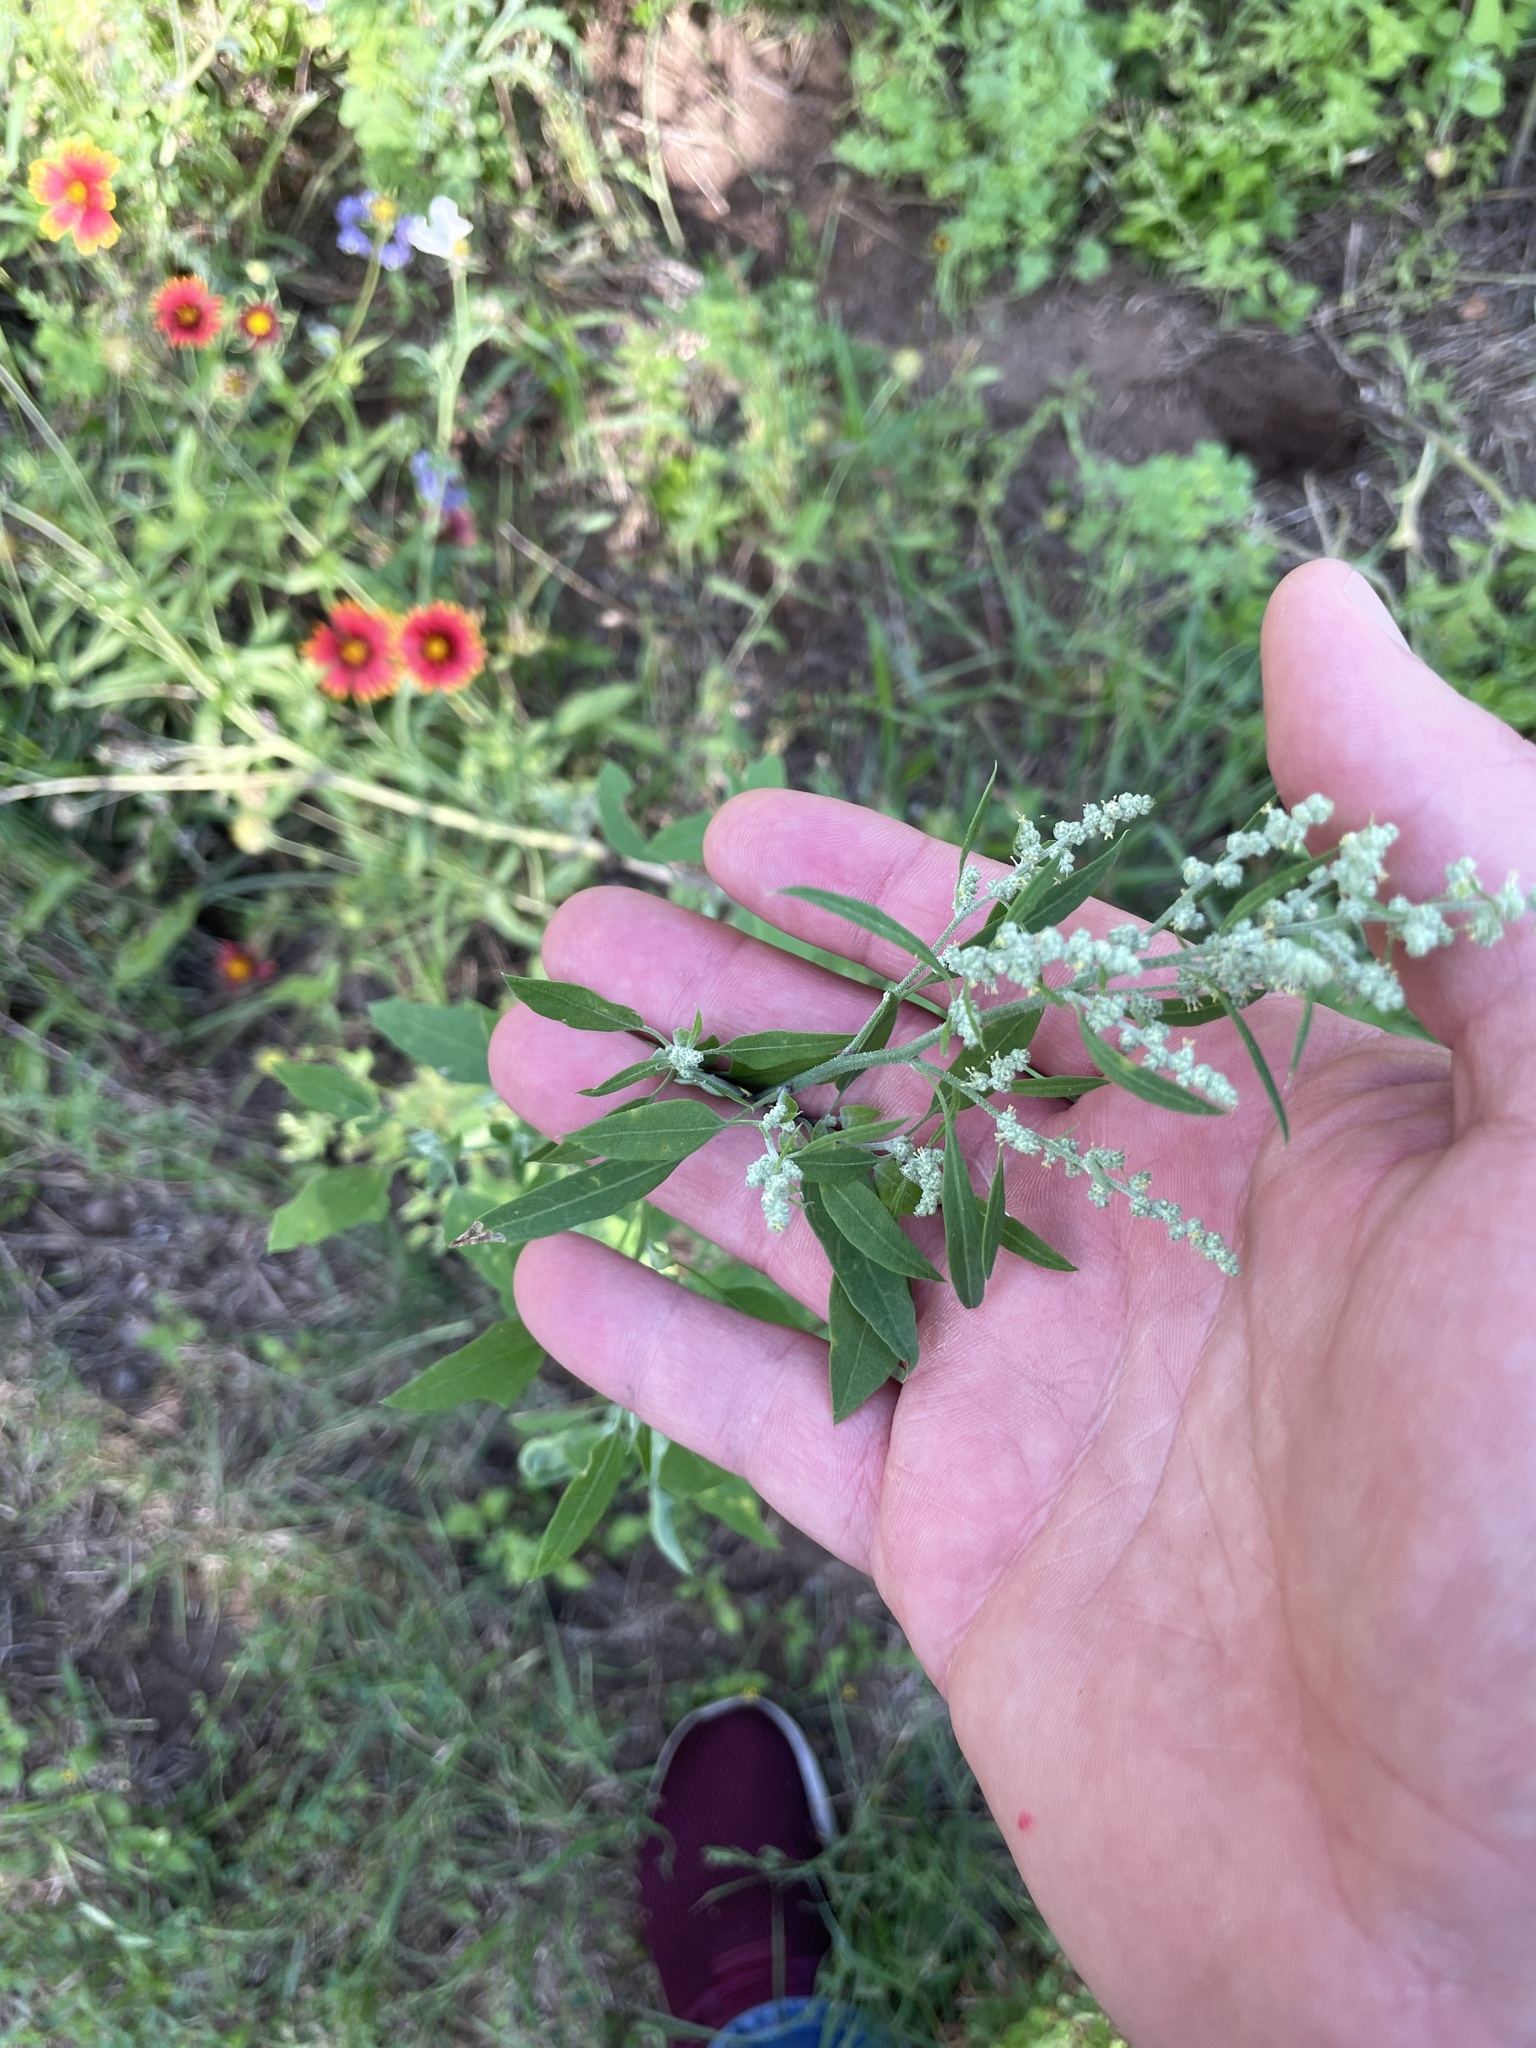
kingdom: Plantae
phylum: Tracheophyta
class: Magnoliopsida
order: Caryophyllales
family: Amaranthaceae
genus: Chenopodium
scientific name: Chenopodium album
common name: Fat-hen
